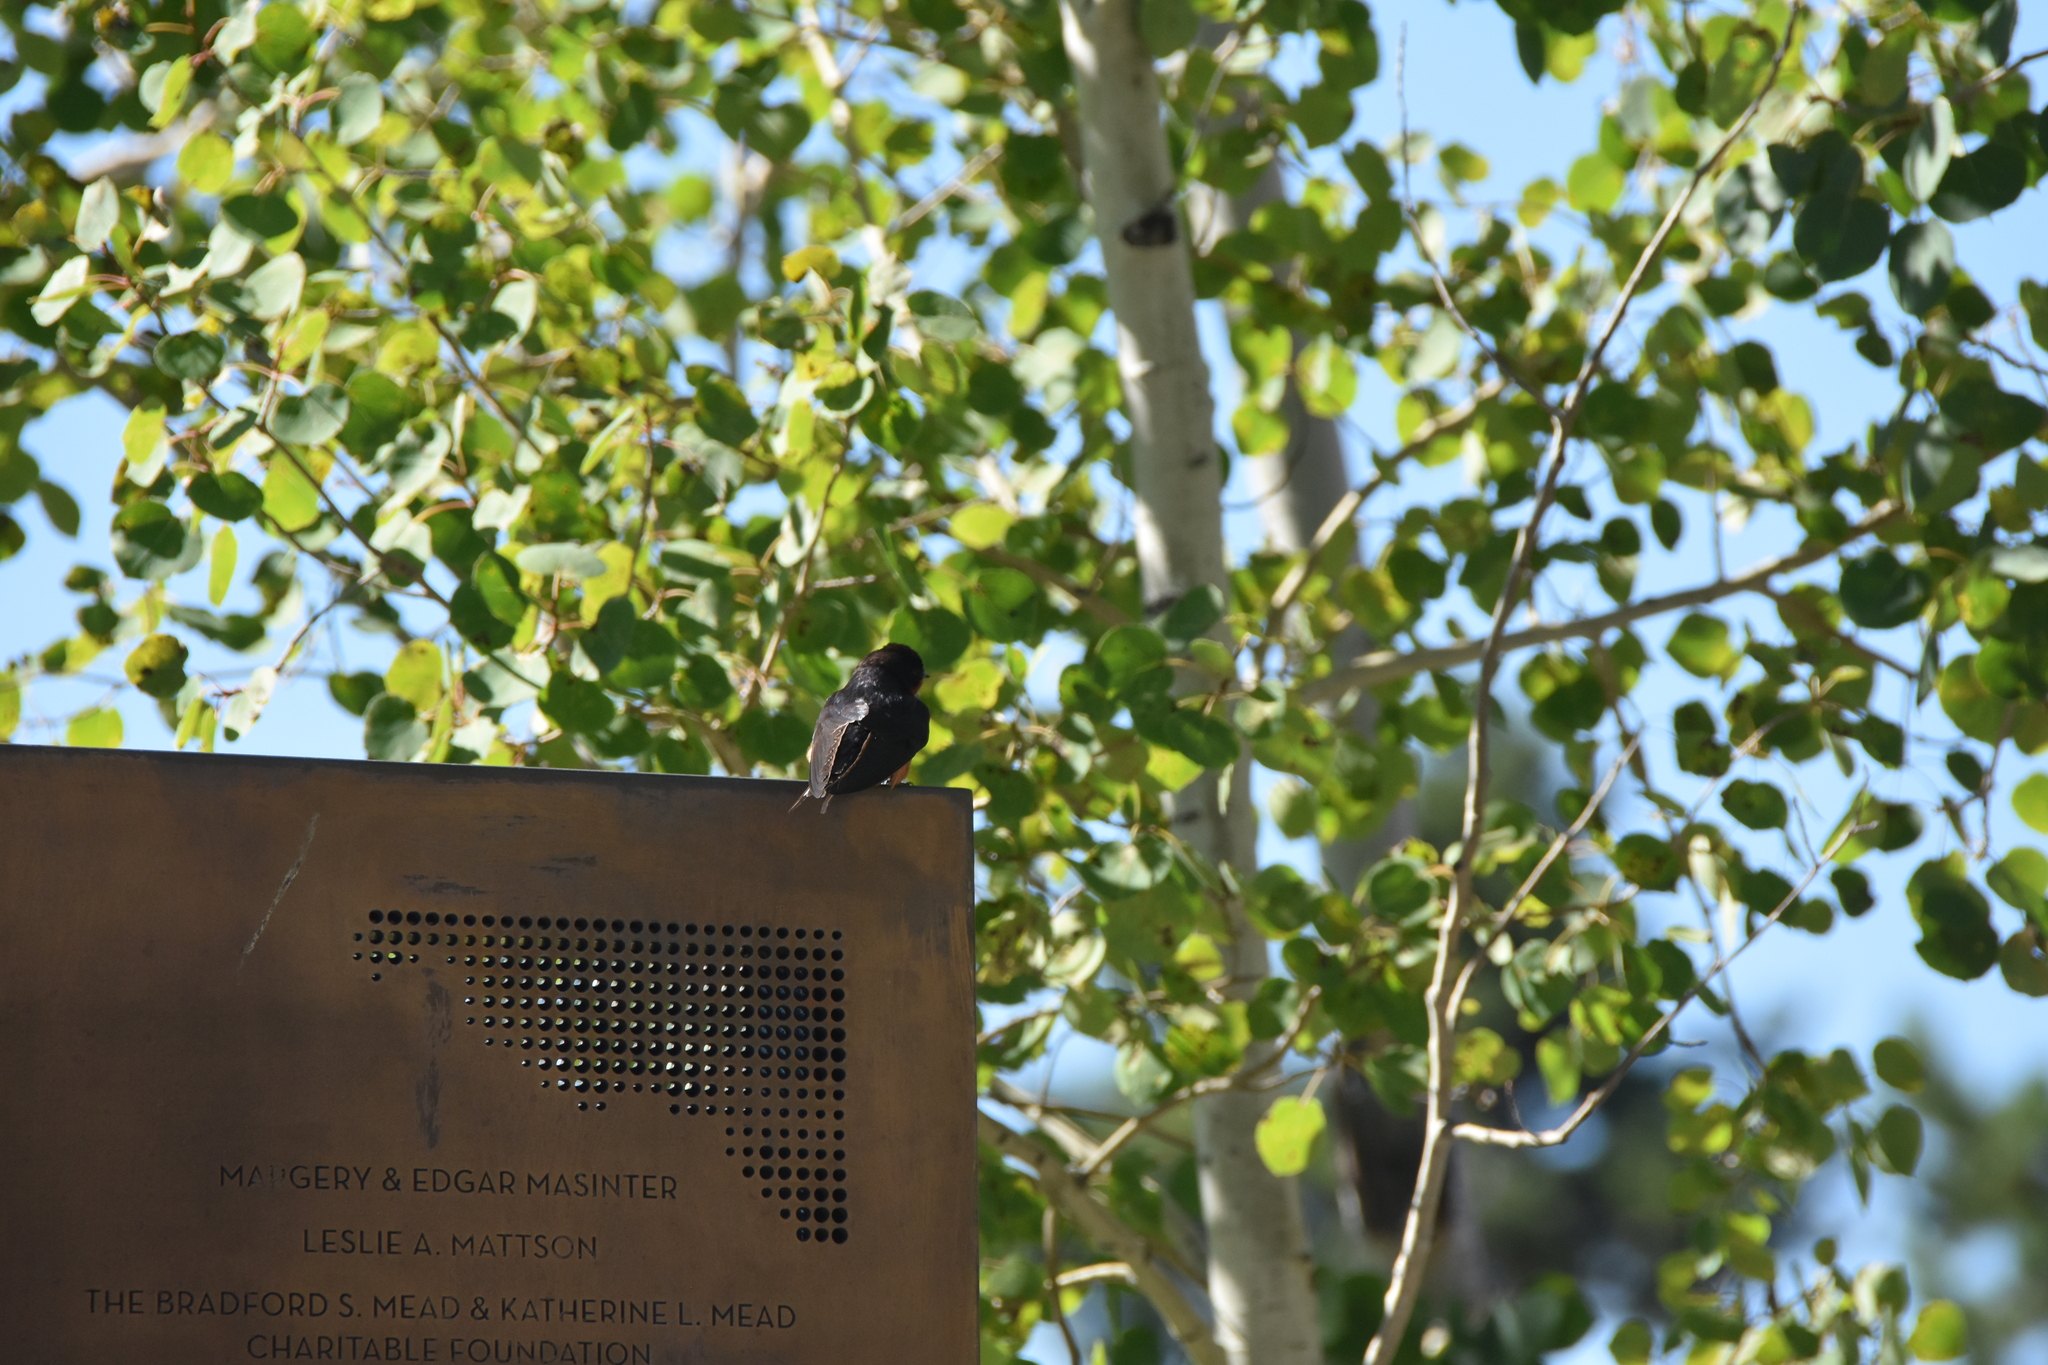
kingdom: Animalia
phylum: Chordata
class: Aves
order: Passeriformes
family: Hirundinidae
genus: Hirundo
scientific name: Hirundo rustica
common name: Barn swallow
